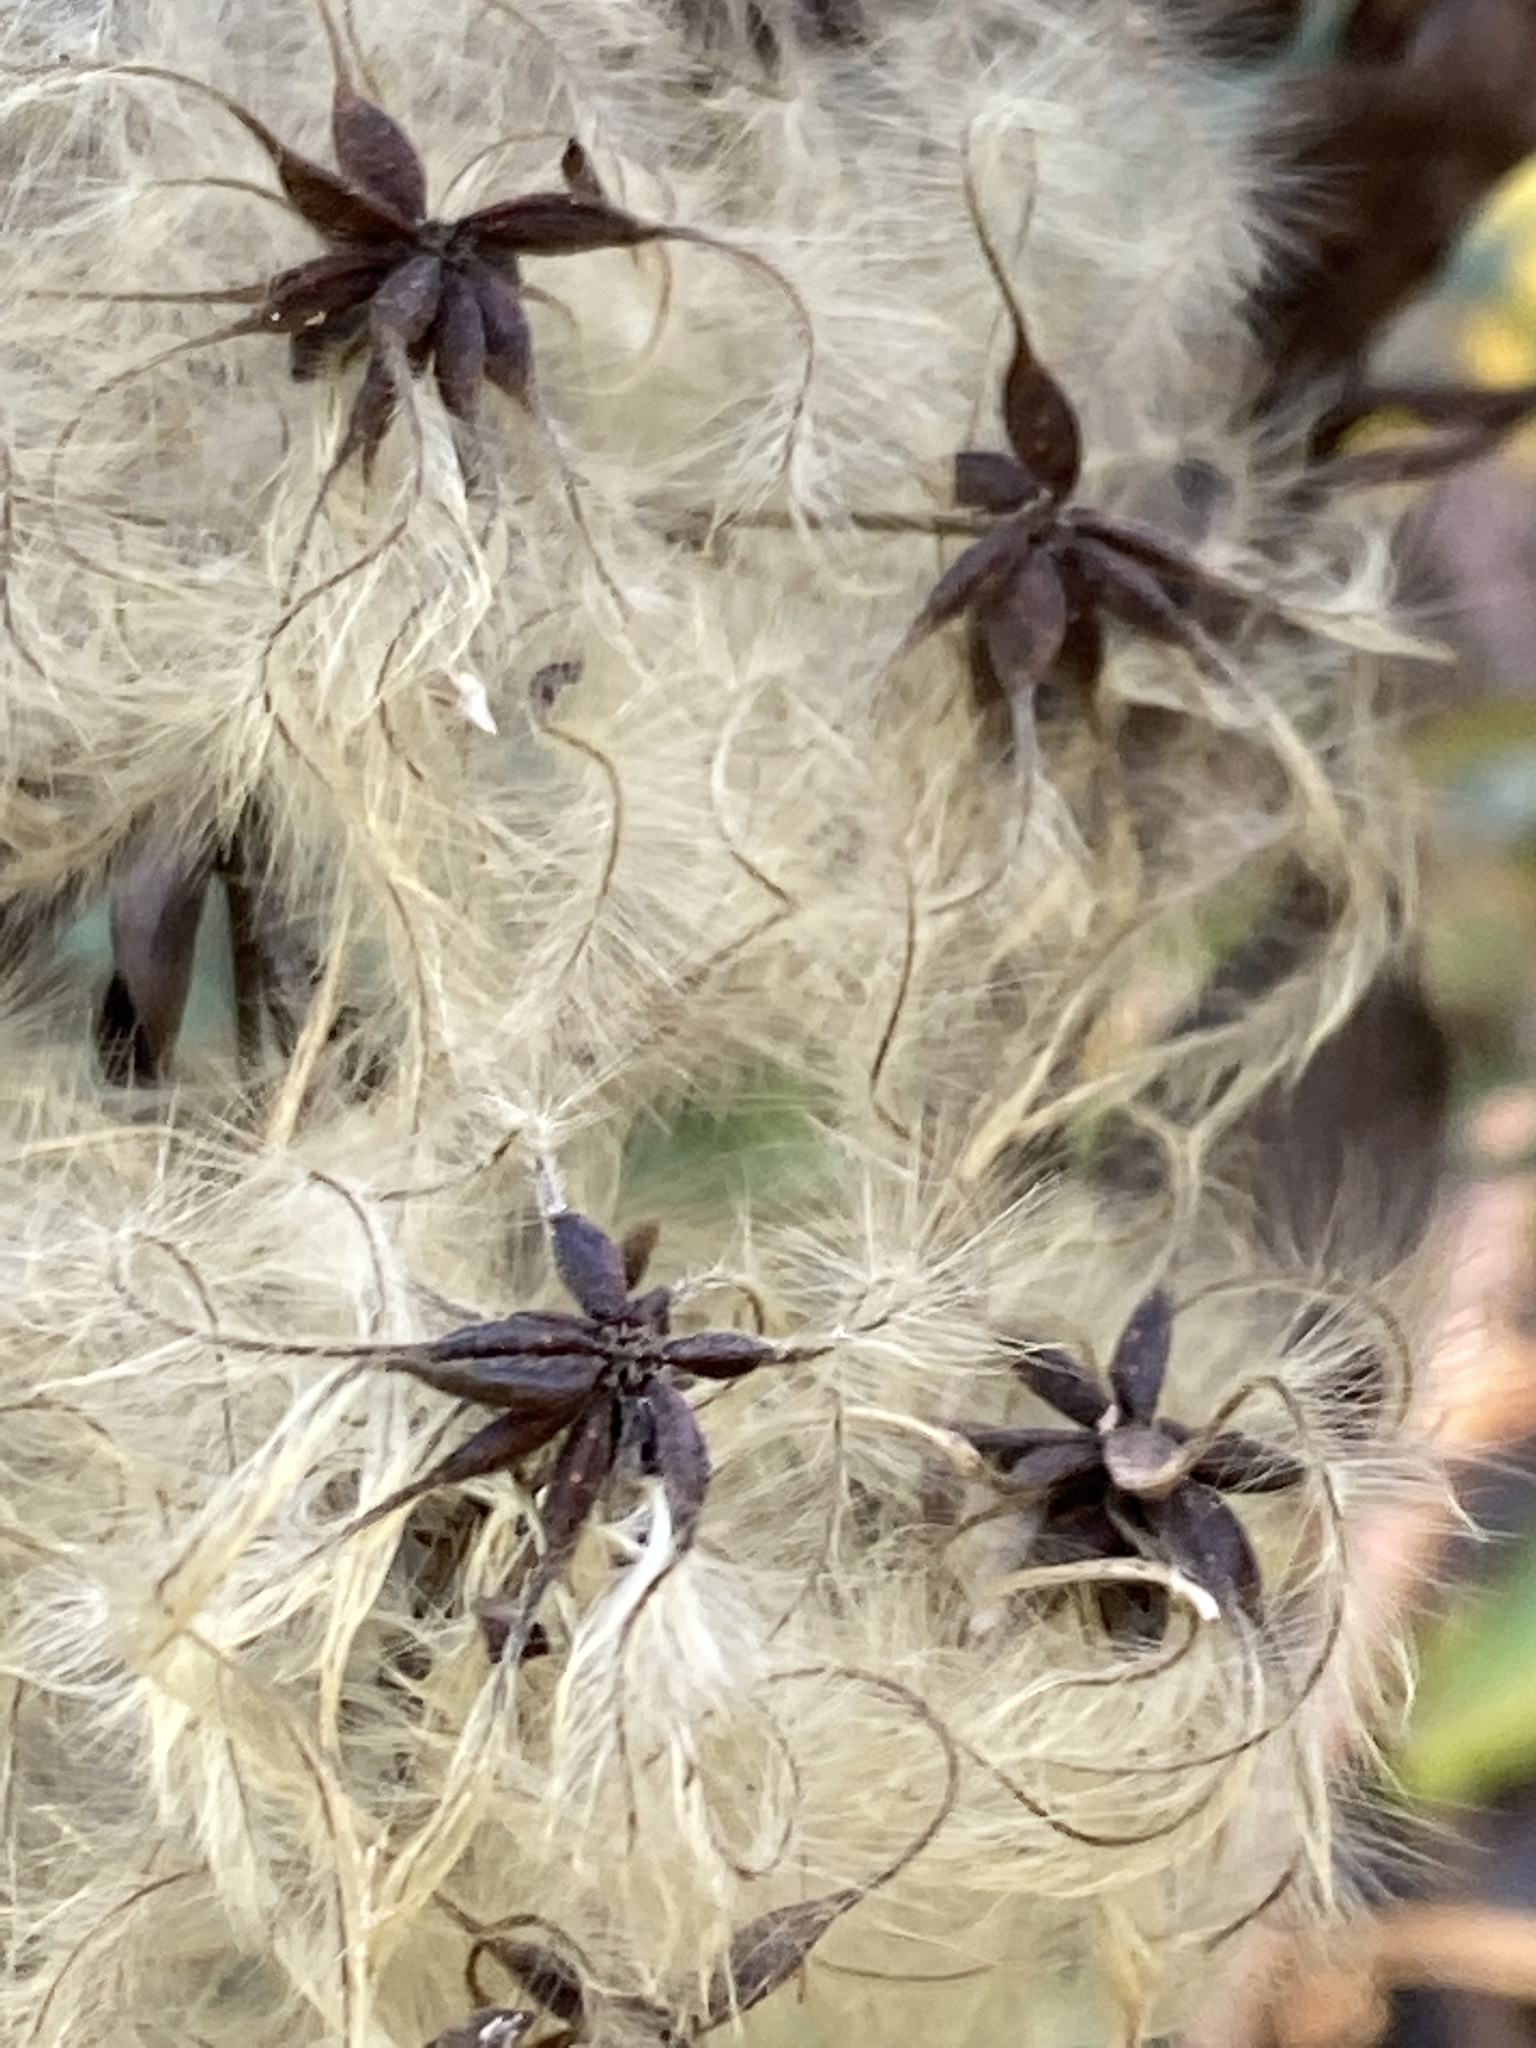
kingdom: Plantae
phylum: Tracheophyta
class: Magnoliopsida
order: Ranunculales
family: Ranunculaceae
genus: Clematis
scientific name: Clematis catesbyana
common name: Virgin's bower
